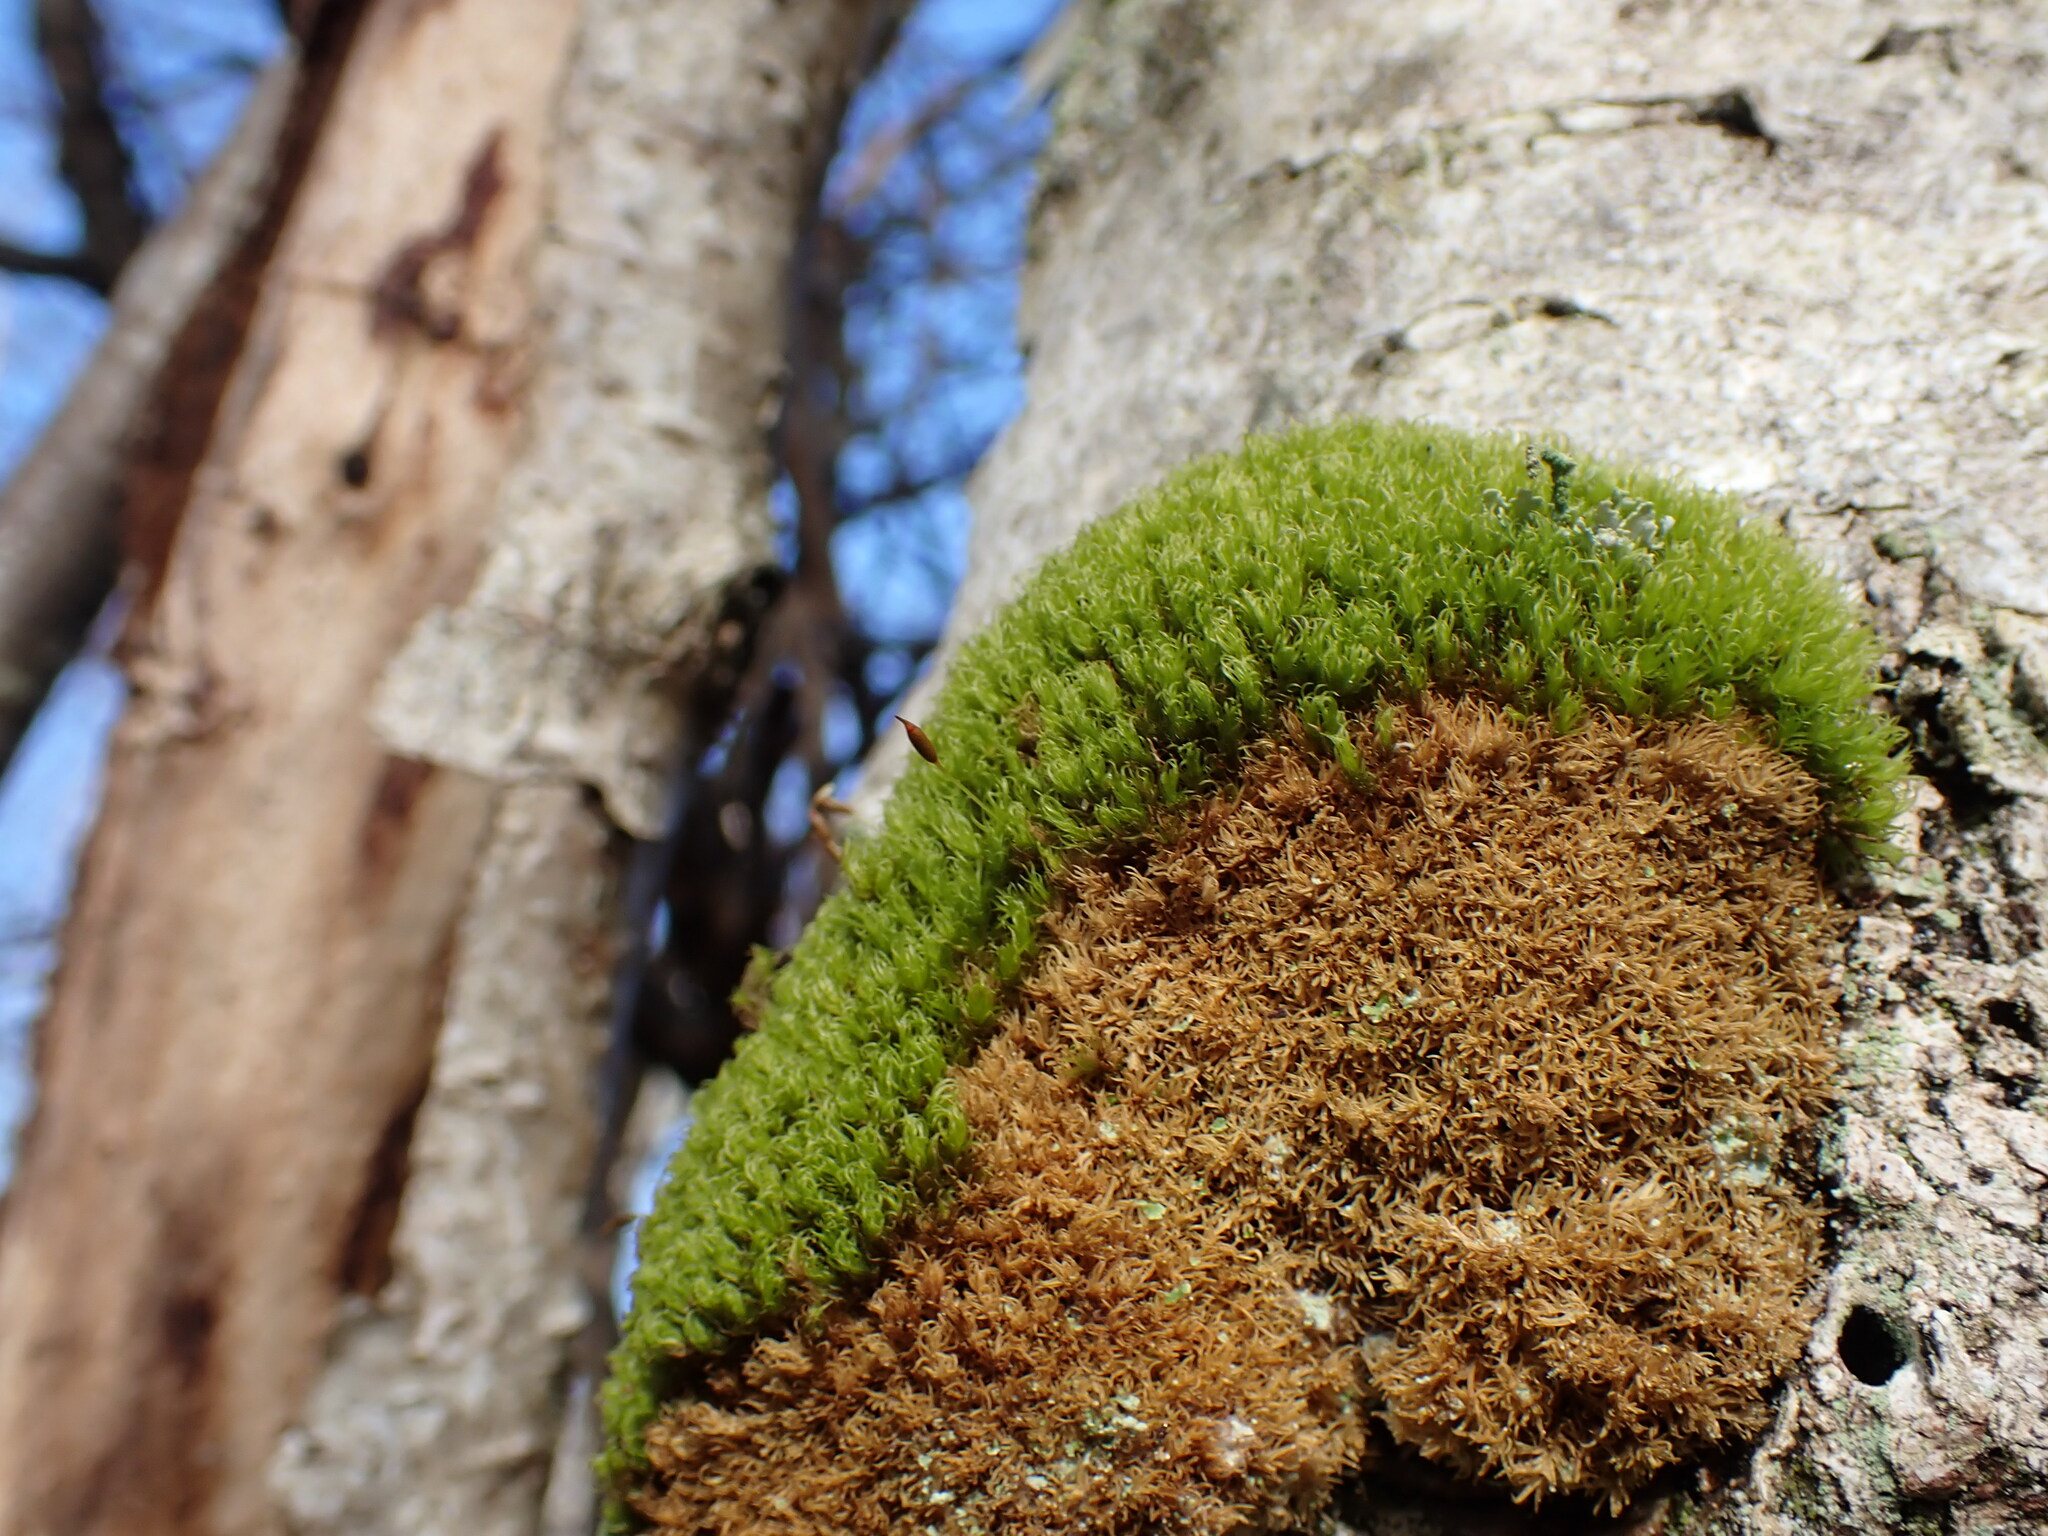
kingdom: Plantae
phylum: Bryophyta
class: Bryopsida
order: Dicranales
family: Rhabdoweisiaceae
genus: Dicranoweisia
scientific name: Dicranoweisia cirrata
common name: Common pincushion
